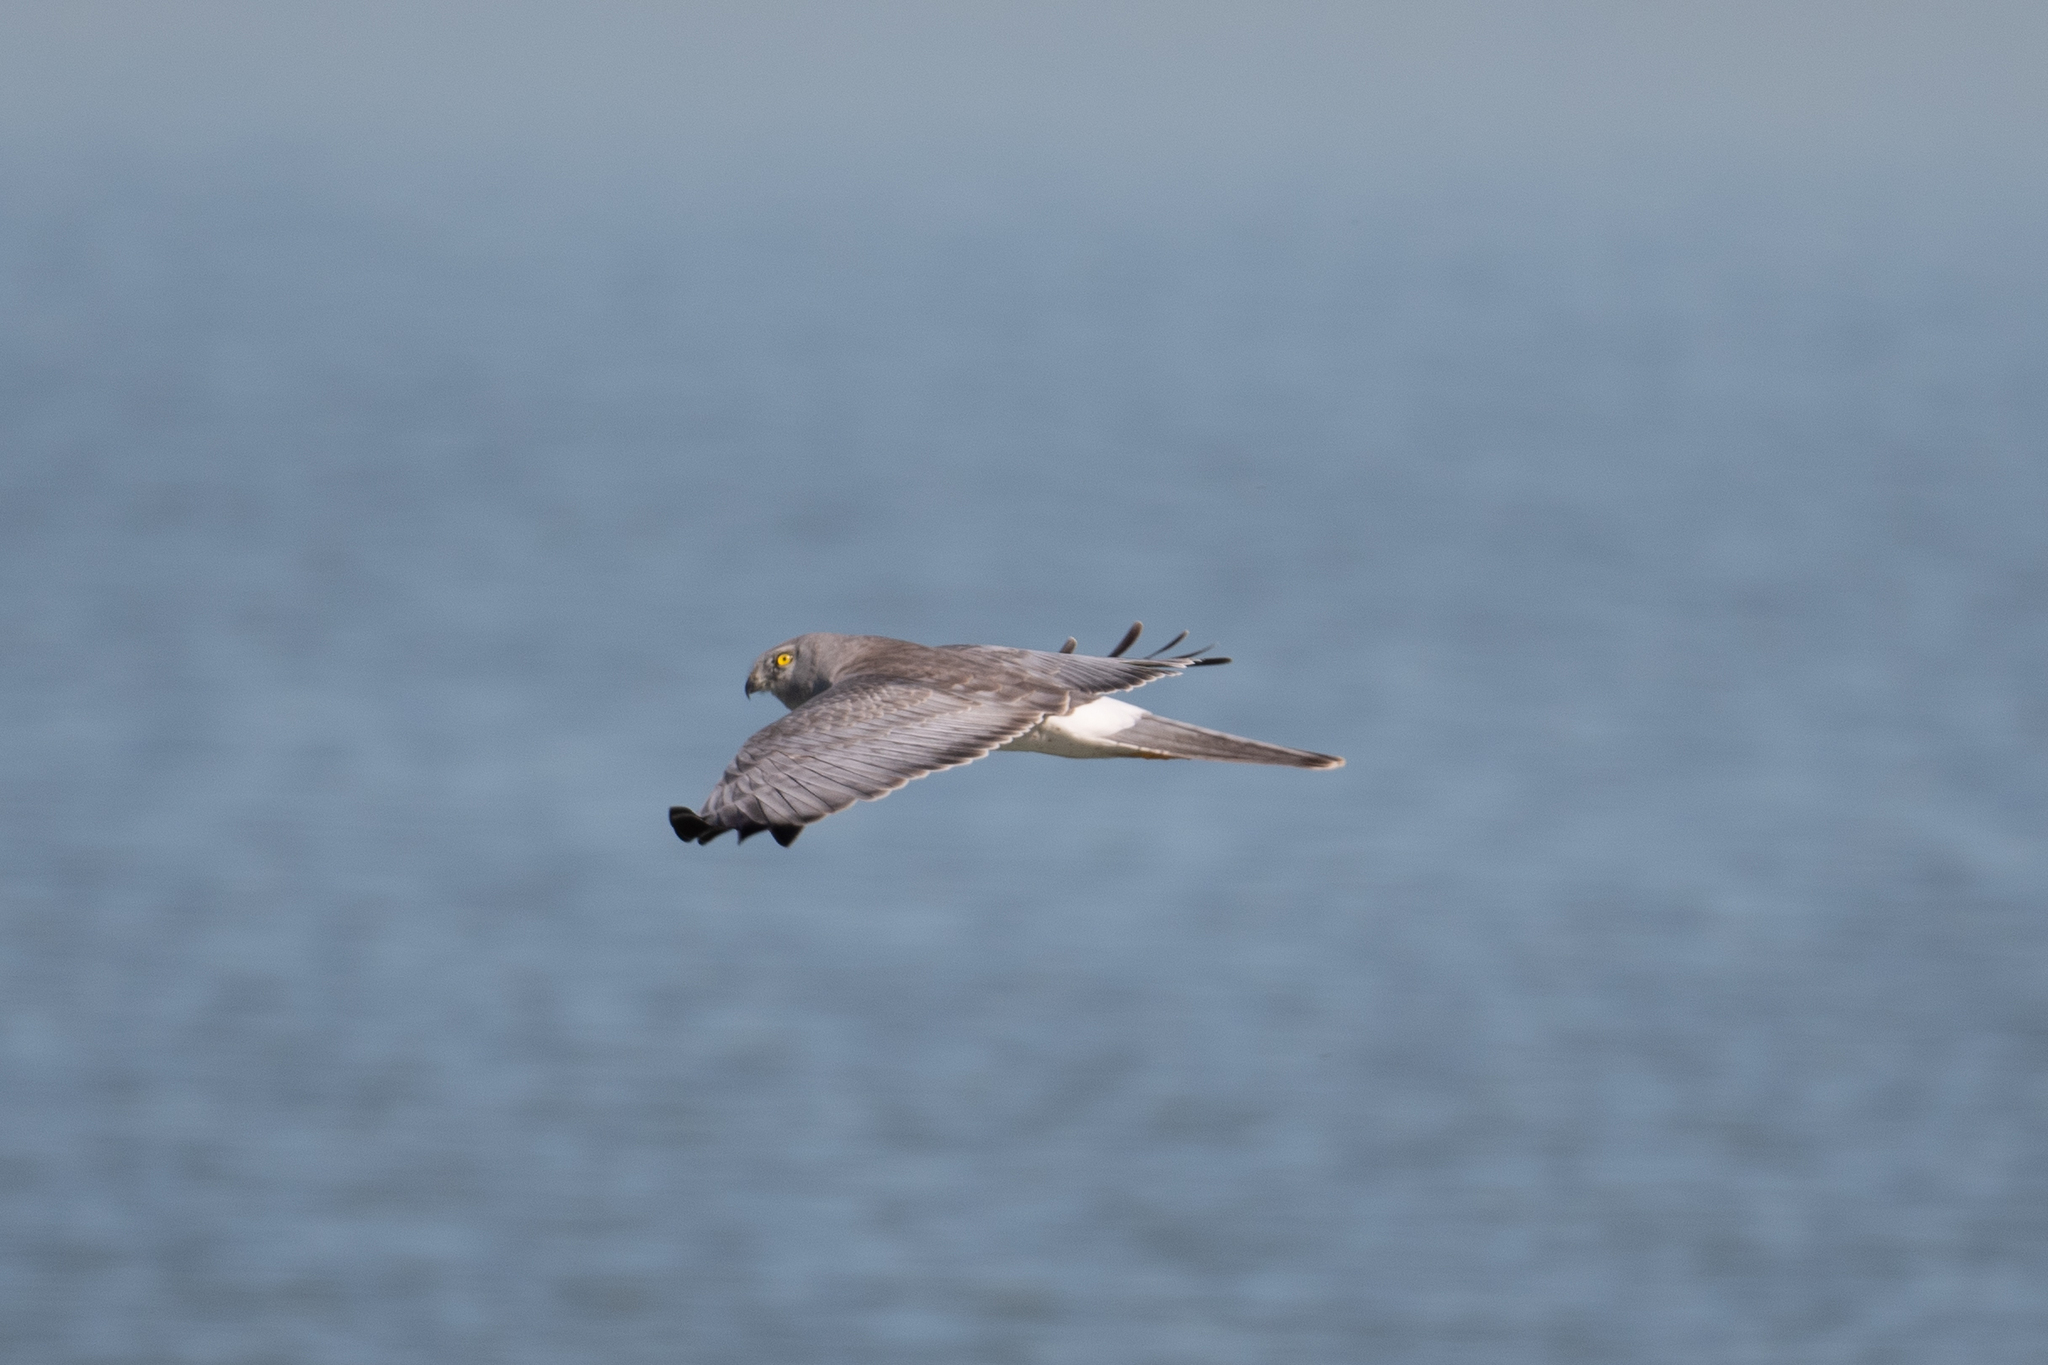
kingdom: Animalia
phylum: Chordata
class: Aves
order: Accipitriformes
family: Accipitridae
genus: Circus
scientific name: Circus cyaneus
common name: Hen harrier
